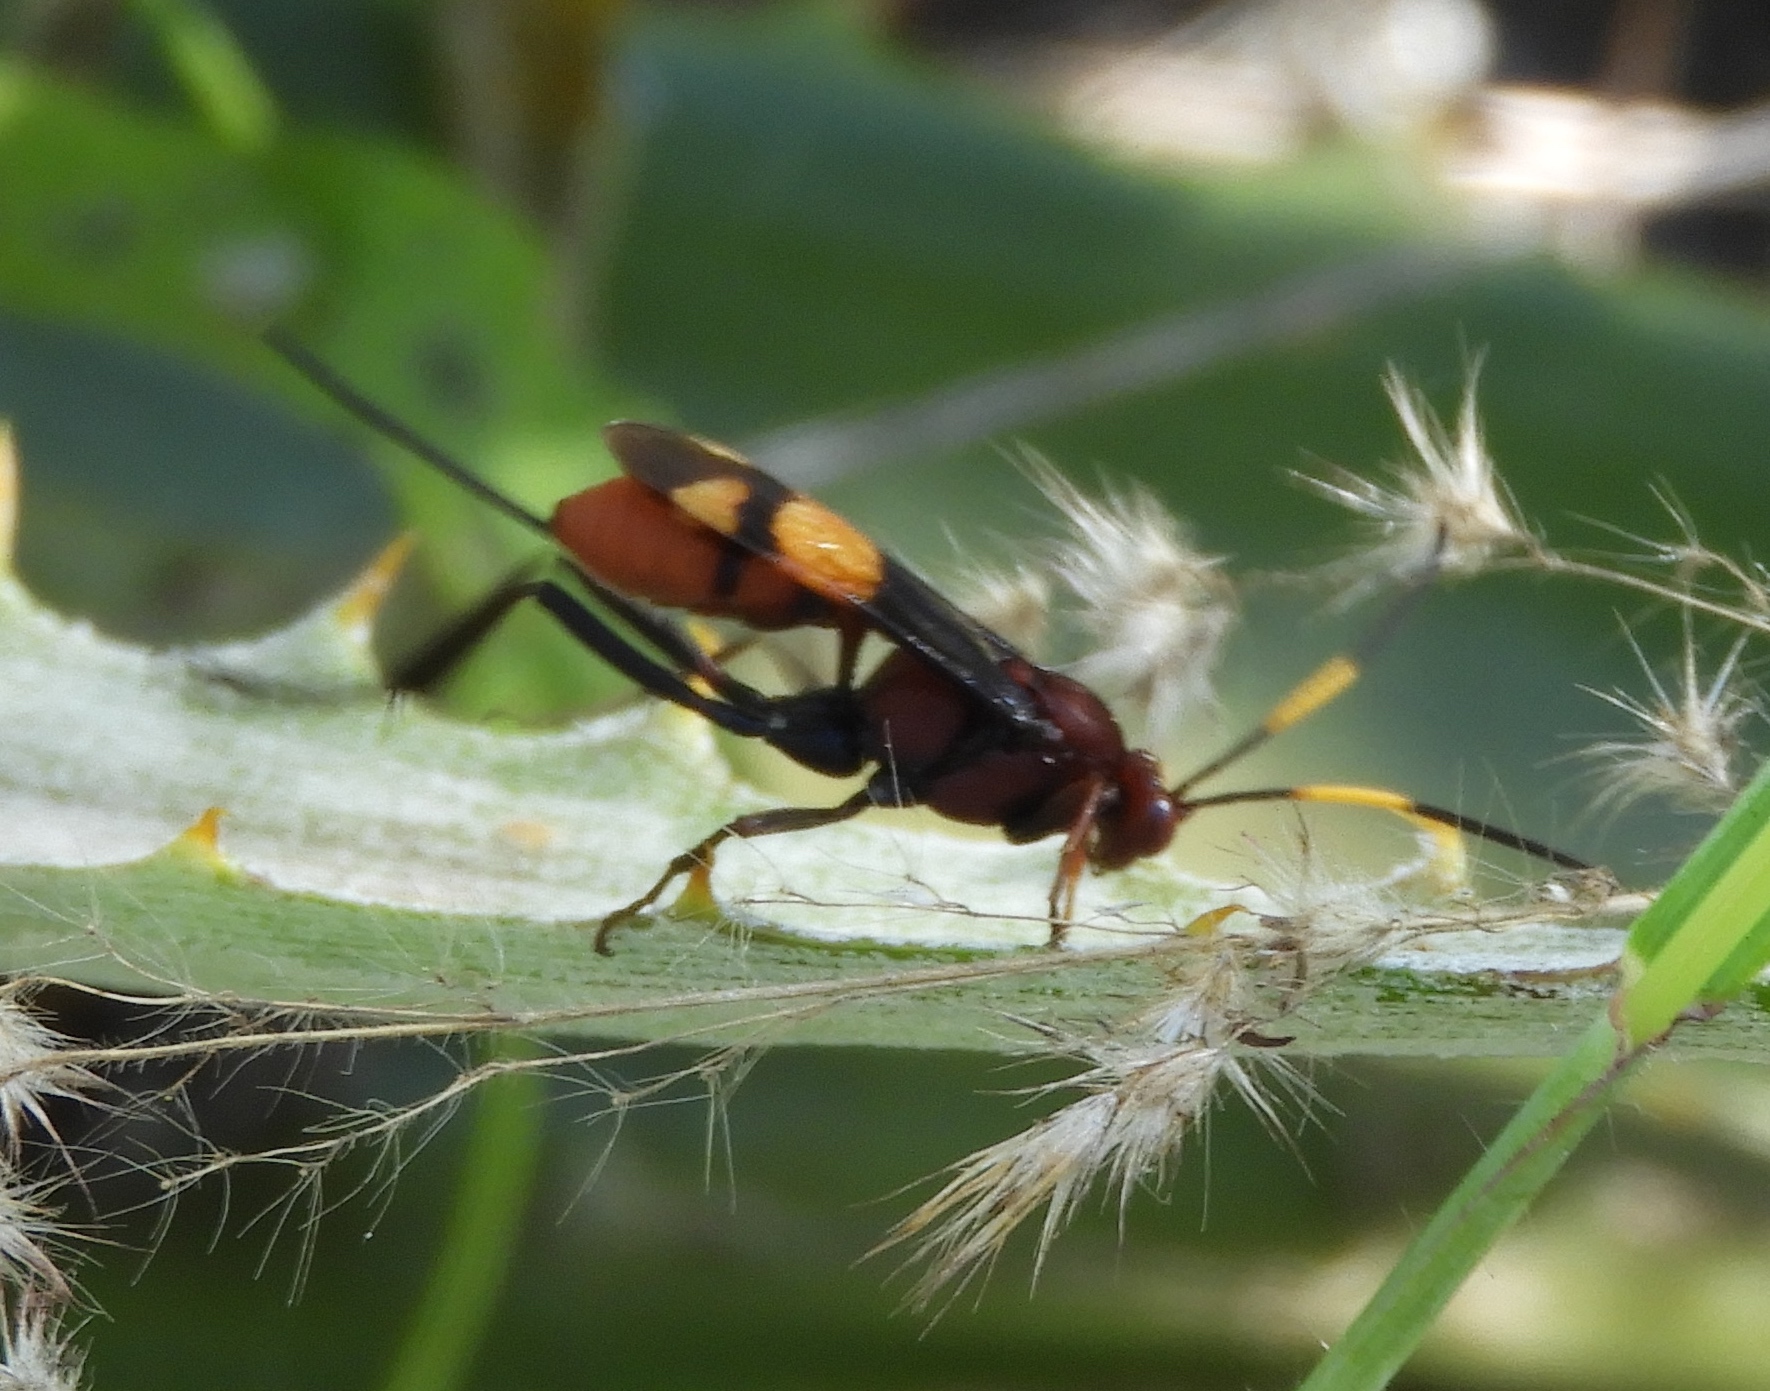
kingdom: Animalia
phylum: Arthropoda
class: Insecta
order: Hymenoptera
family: Ichneumonidae
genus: Compsocryptus
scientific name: Compsocryptus xanthostigma
